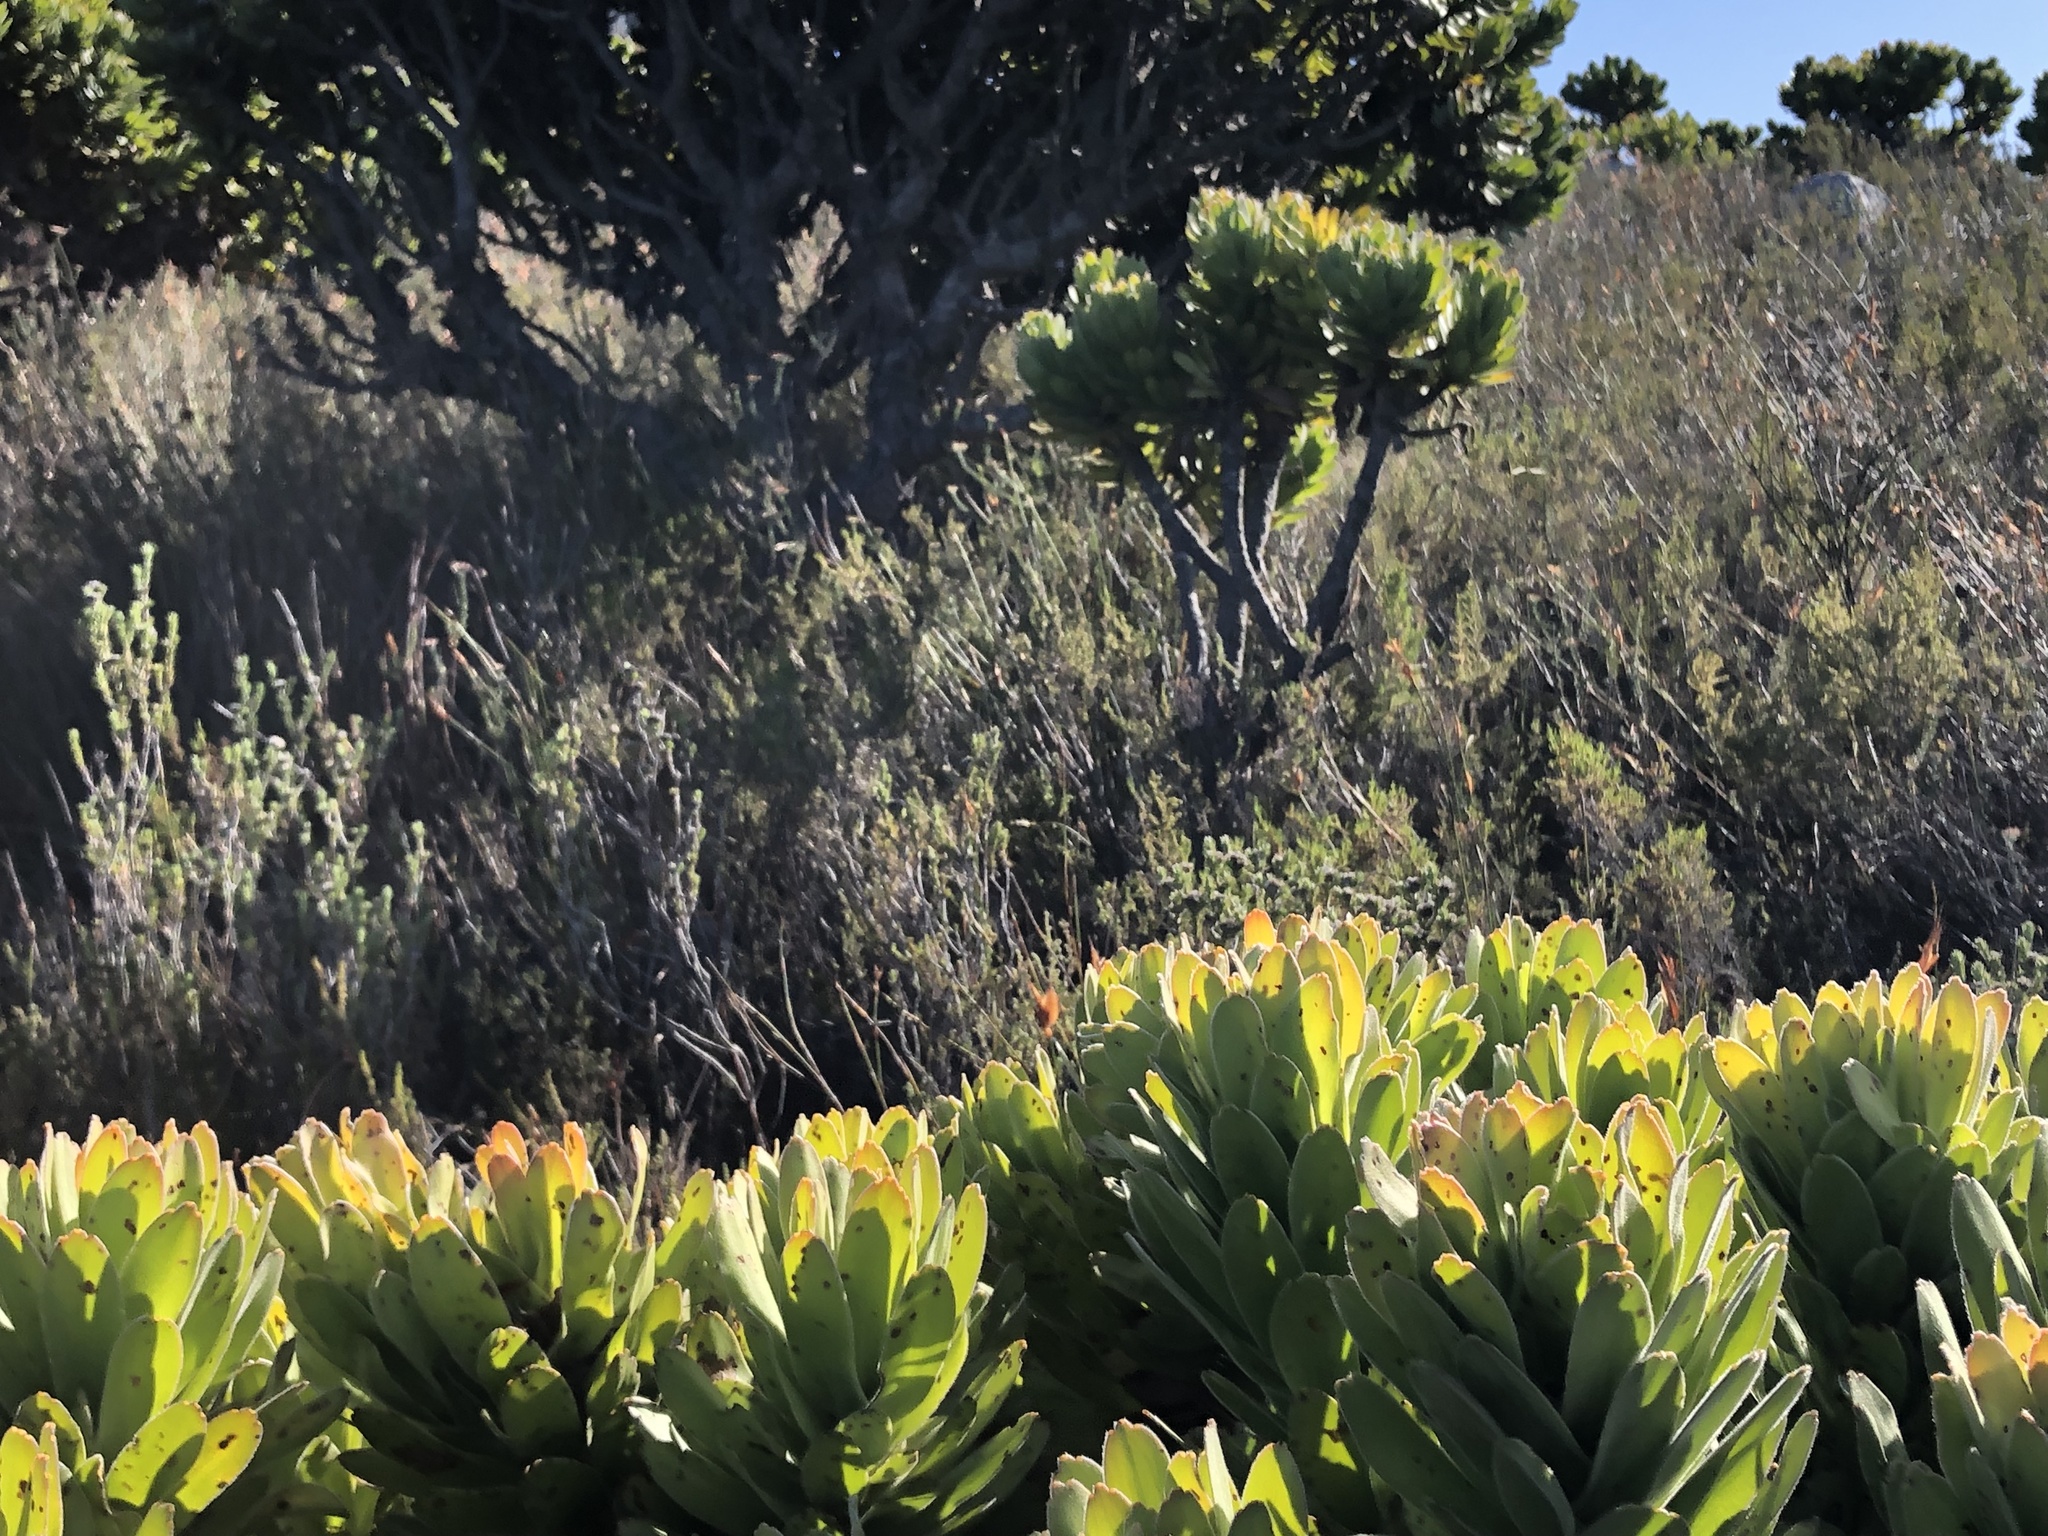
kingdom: Plantae
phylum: Tracheophyta
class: Magnoliopsida
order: Proteales
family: Proteaceae
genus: Mimetes
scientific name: Mimetes fimbriifolius
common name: Fringed bottlebrush
